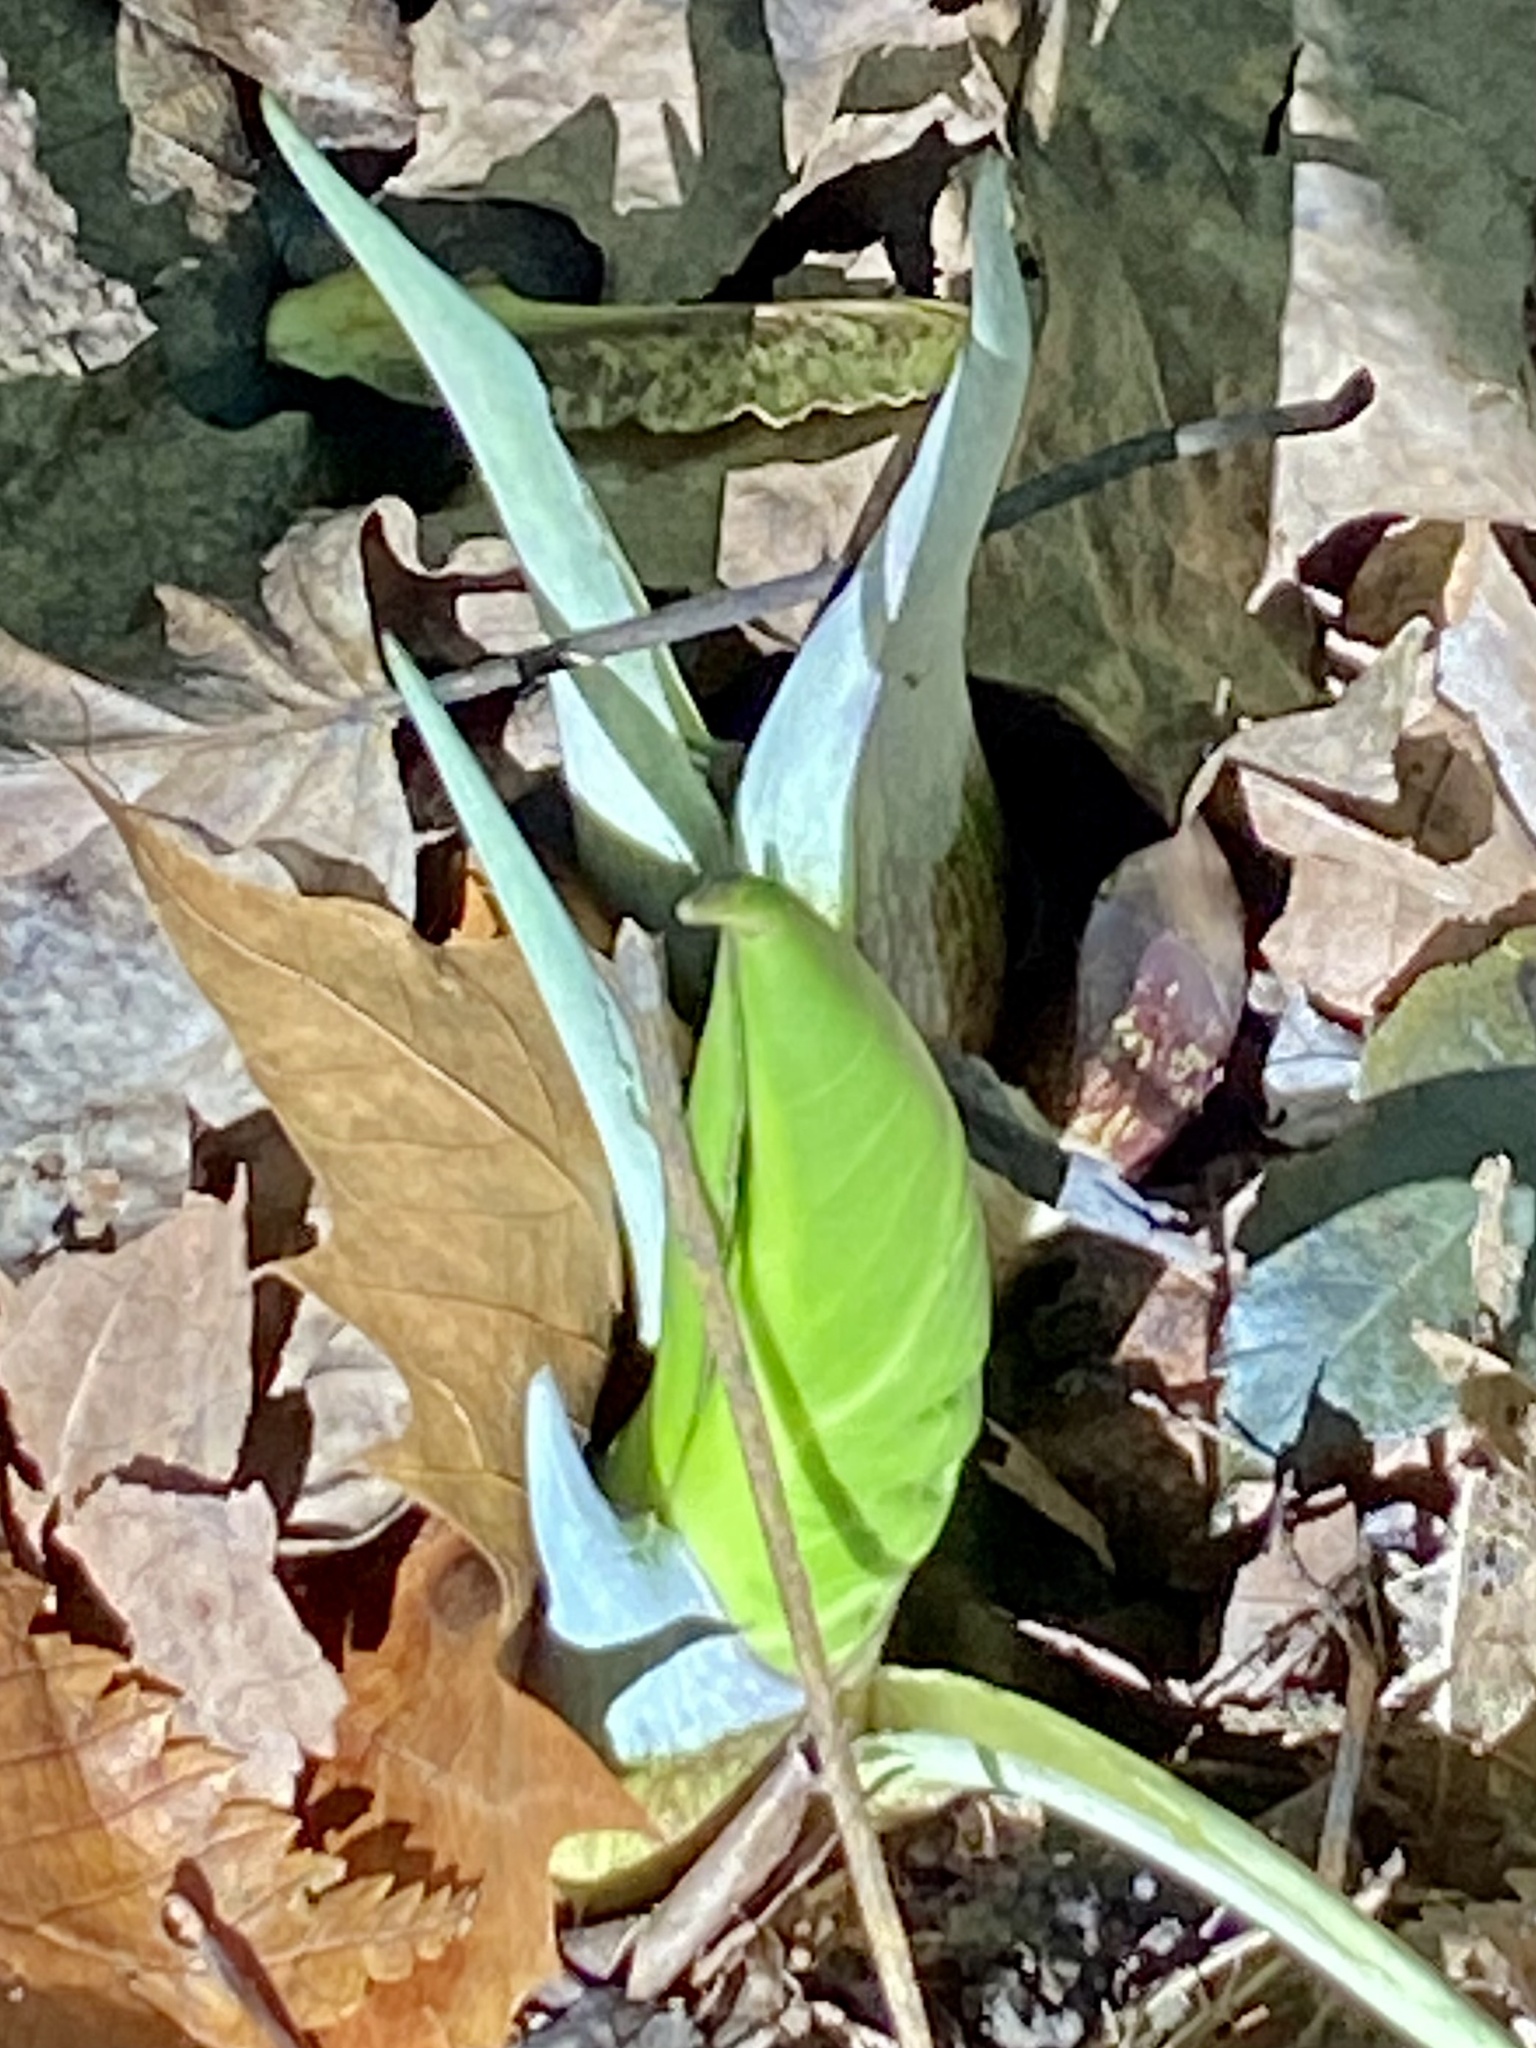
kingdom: Plantae
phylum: Tracheophyta
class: Liliopsida
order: Alismatales
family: Araceae
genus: Symplocarpus
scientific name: Symplocarpus foetidus
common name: Eastern skunk cabbage
